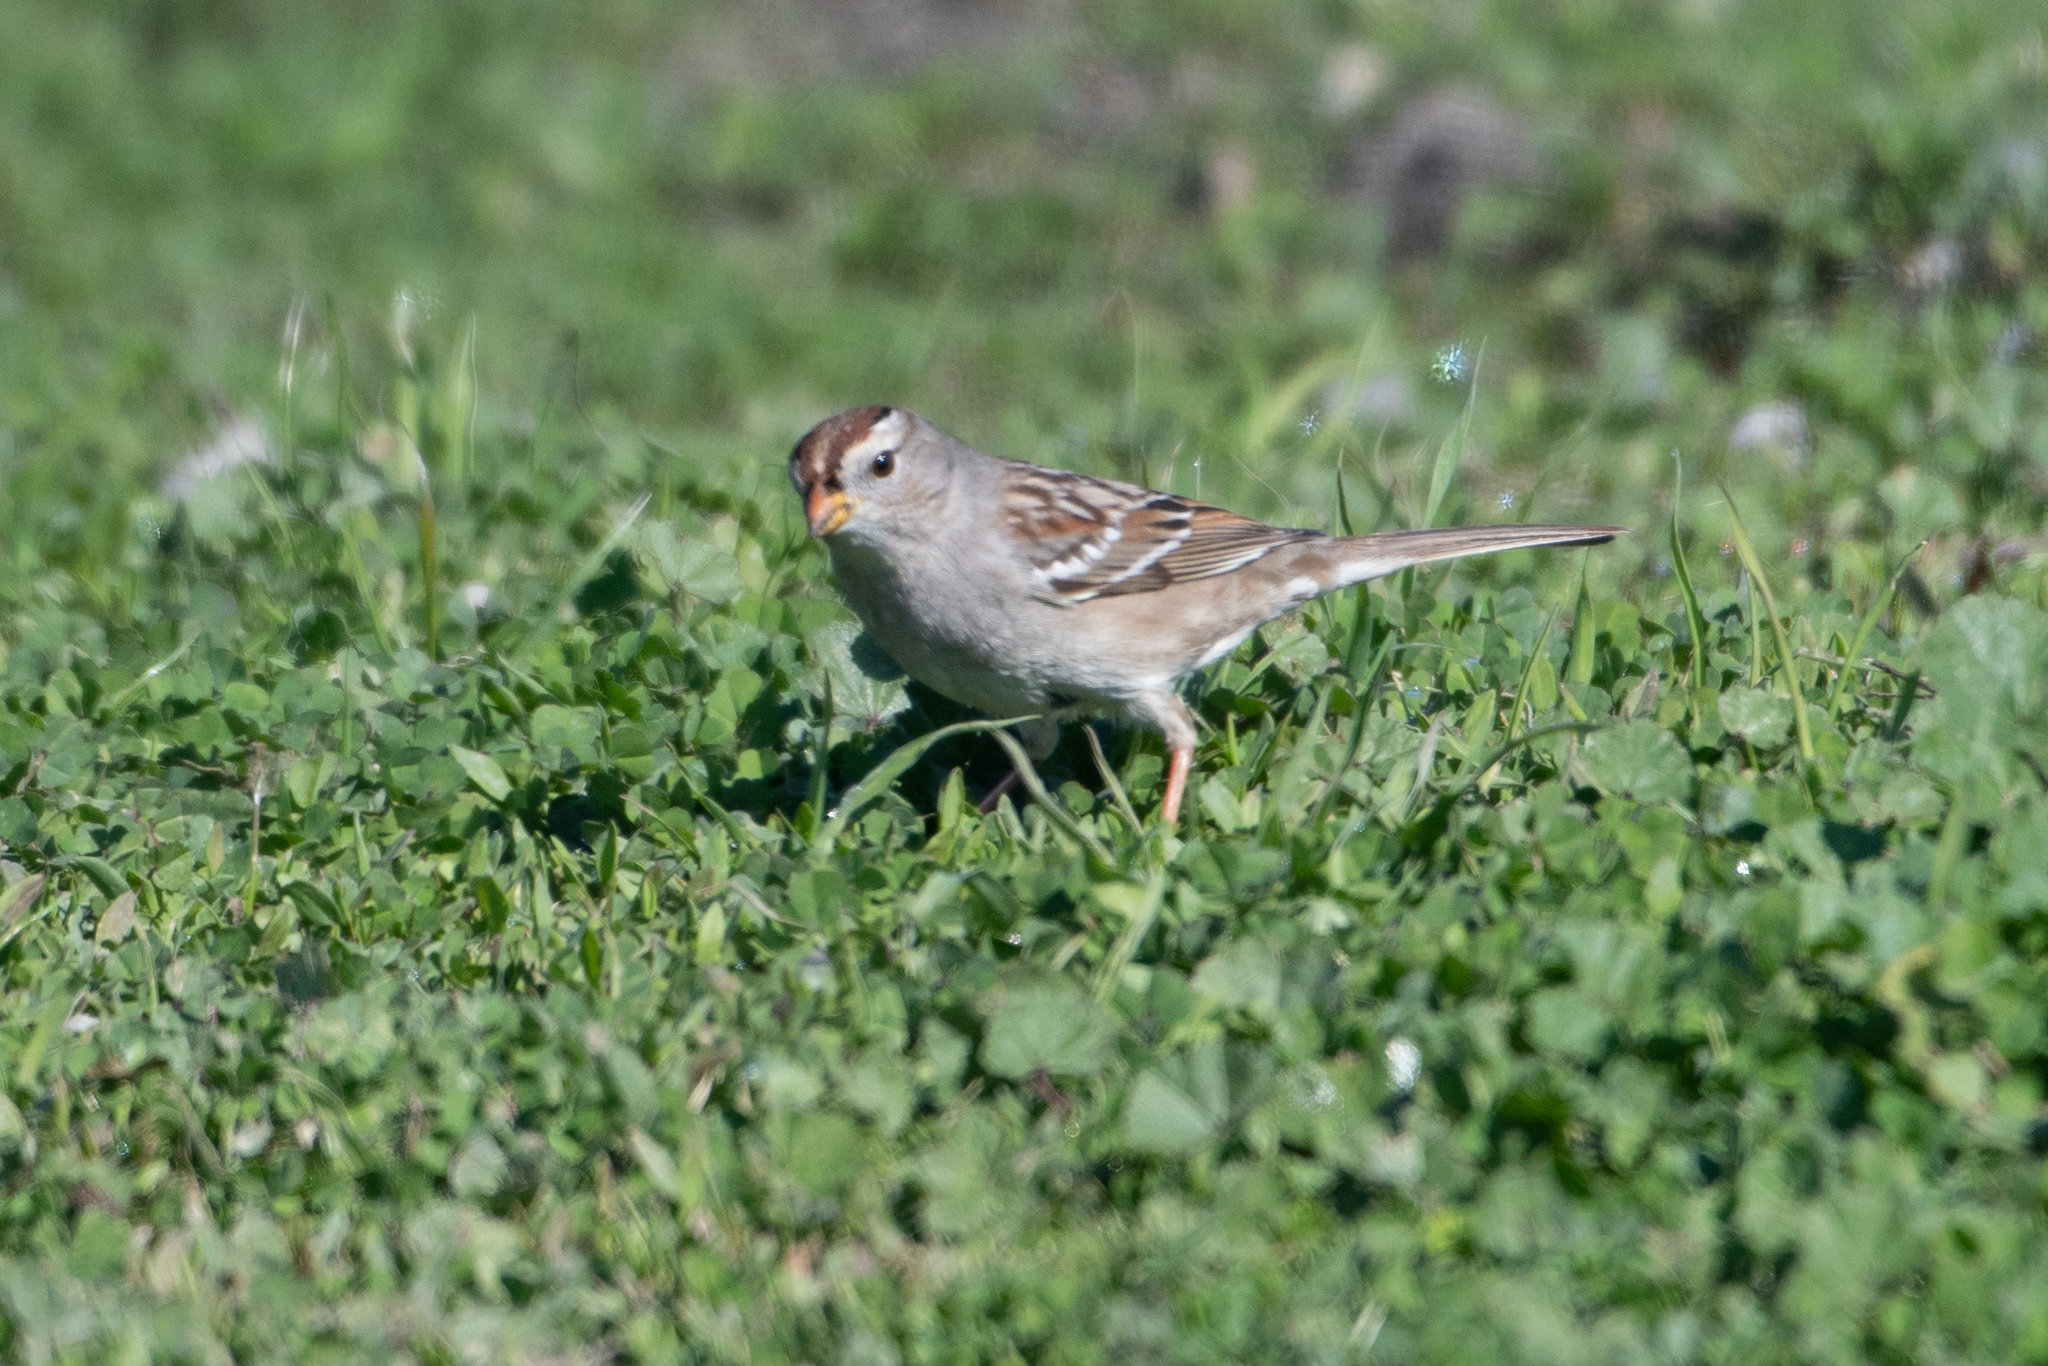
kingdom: Animalia
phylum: Chordata
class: Aves
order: Passeriformes
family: Passerellidae
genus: Zonotrichia
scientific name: Zonotrichia leucophrys
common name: White-crowned sparrow
